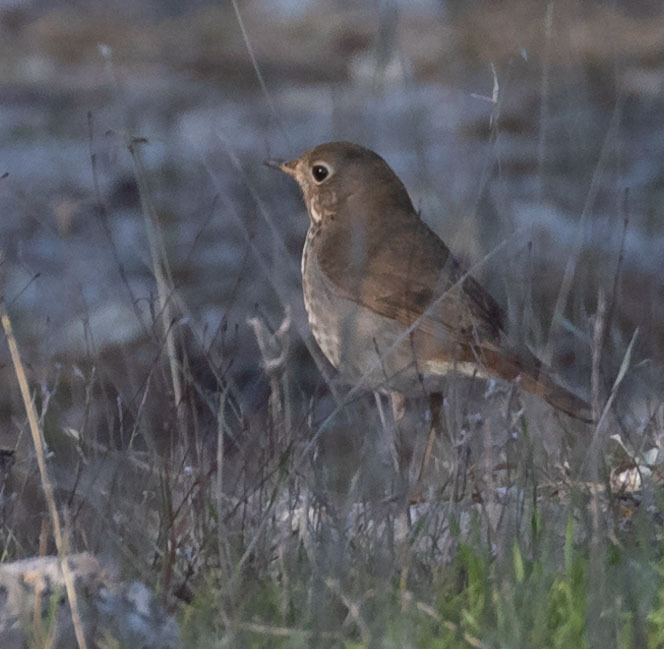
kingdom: Animalia
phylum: Chordata
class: Aves
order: Passeriformes
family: Turdidae
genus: Catharus
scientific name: Catharus guttatus
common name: Hermit thrush
